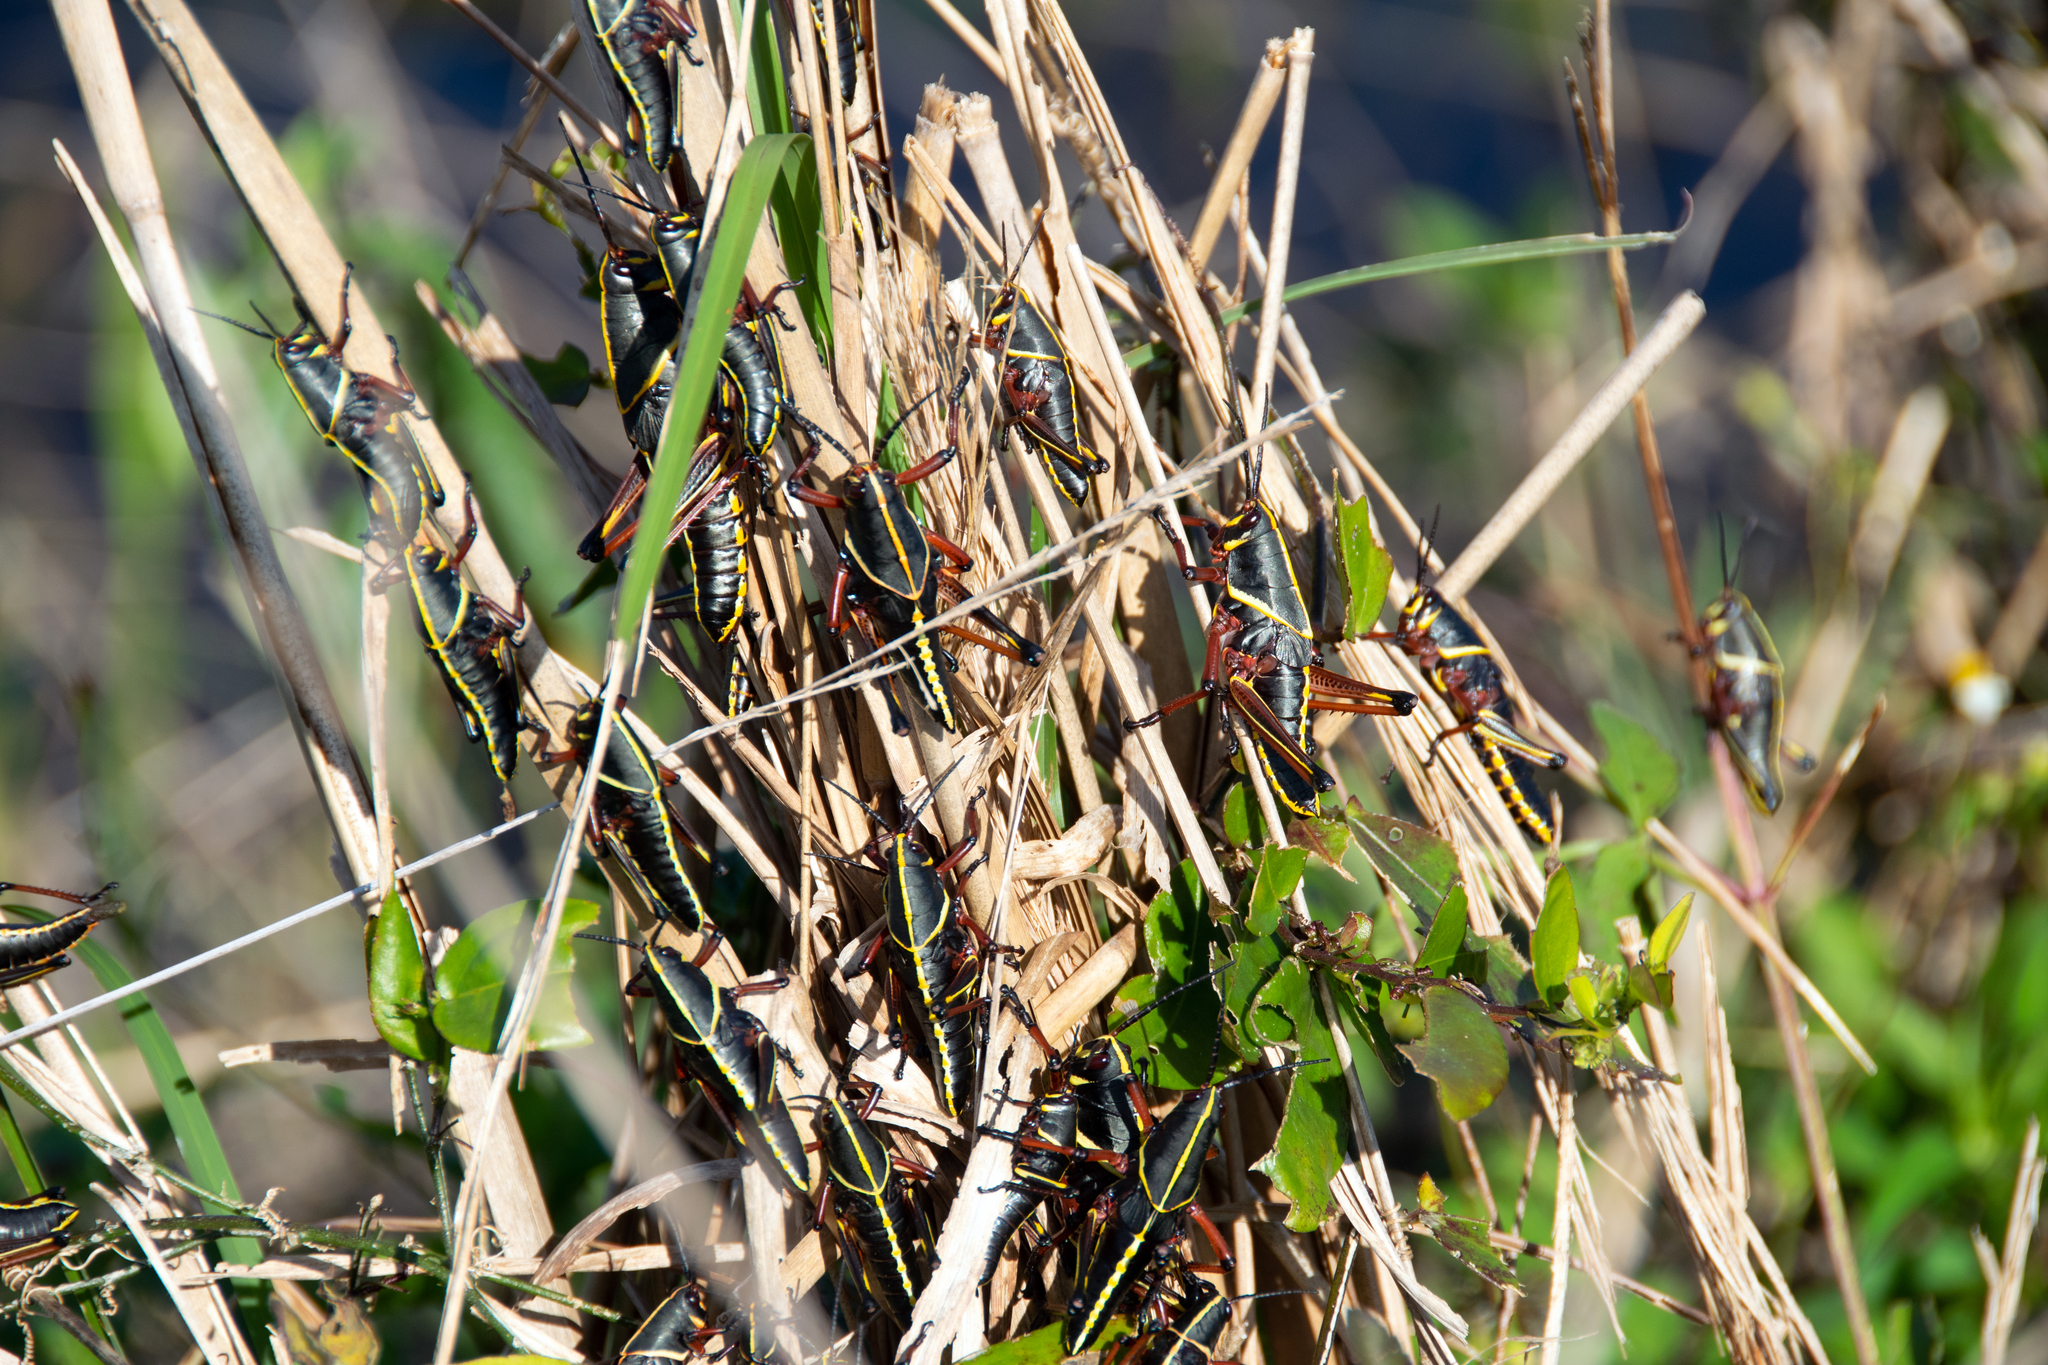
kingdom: Animalia
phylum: Arthropoda
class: Insecta
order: Orthoptera
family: Romaleidae
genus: Romalea
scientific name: Romalea microptera
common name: Eastern lubber grasshopper
